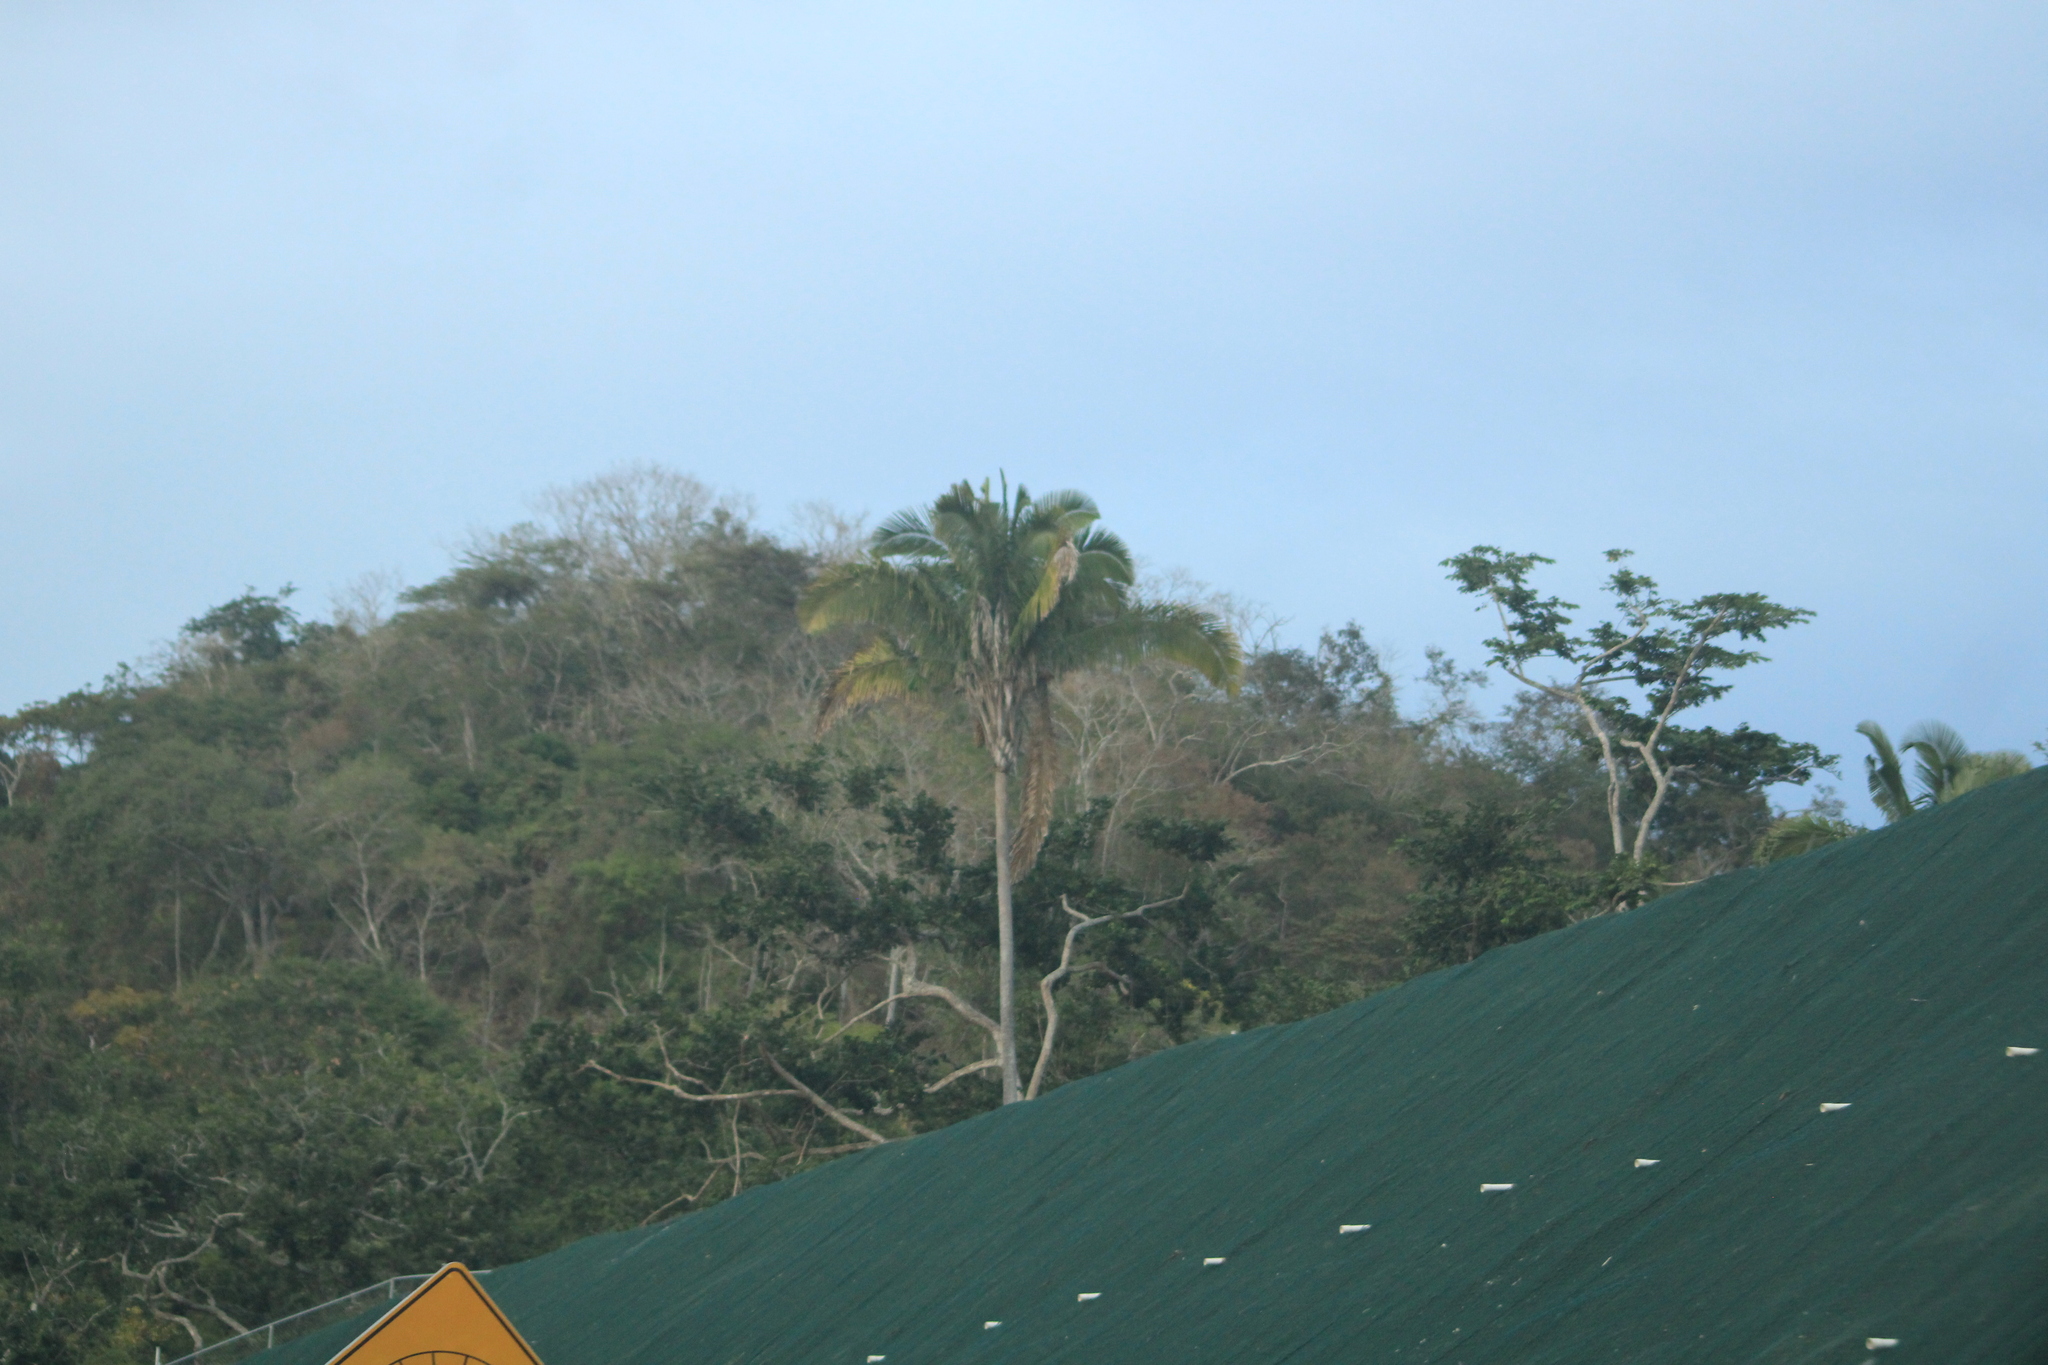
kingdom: Plantae
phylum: Tracheophyta
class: Liliopsida
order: Arecales
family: Arecaceae
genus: Attalea
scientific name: Attalea guacuyule
